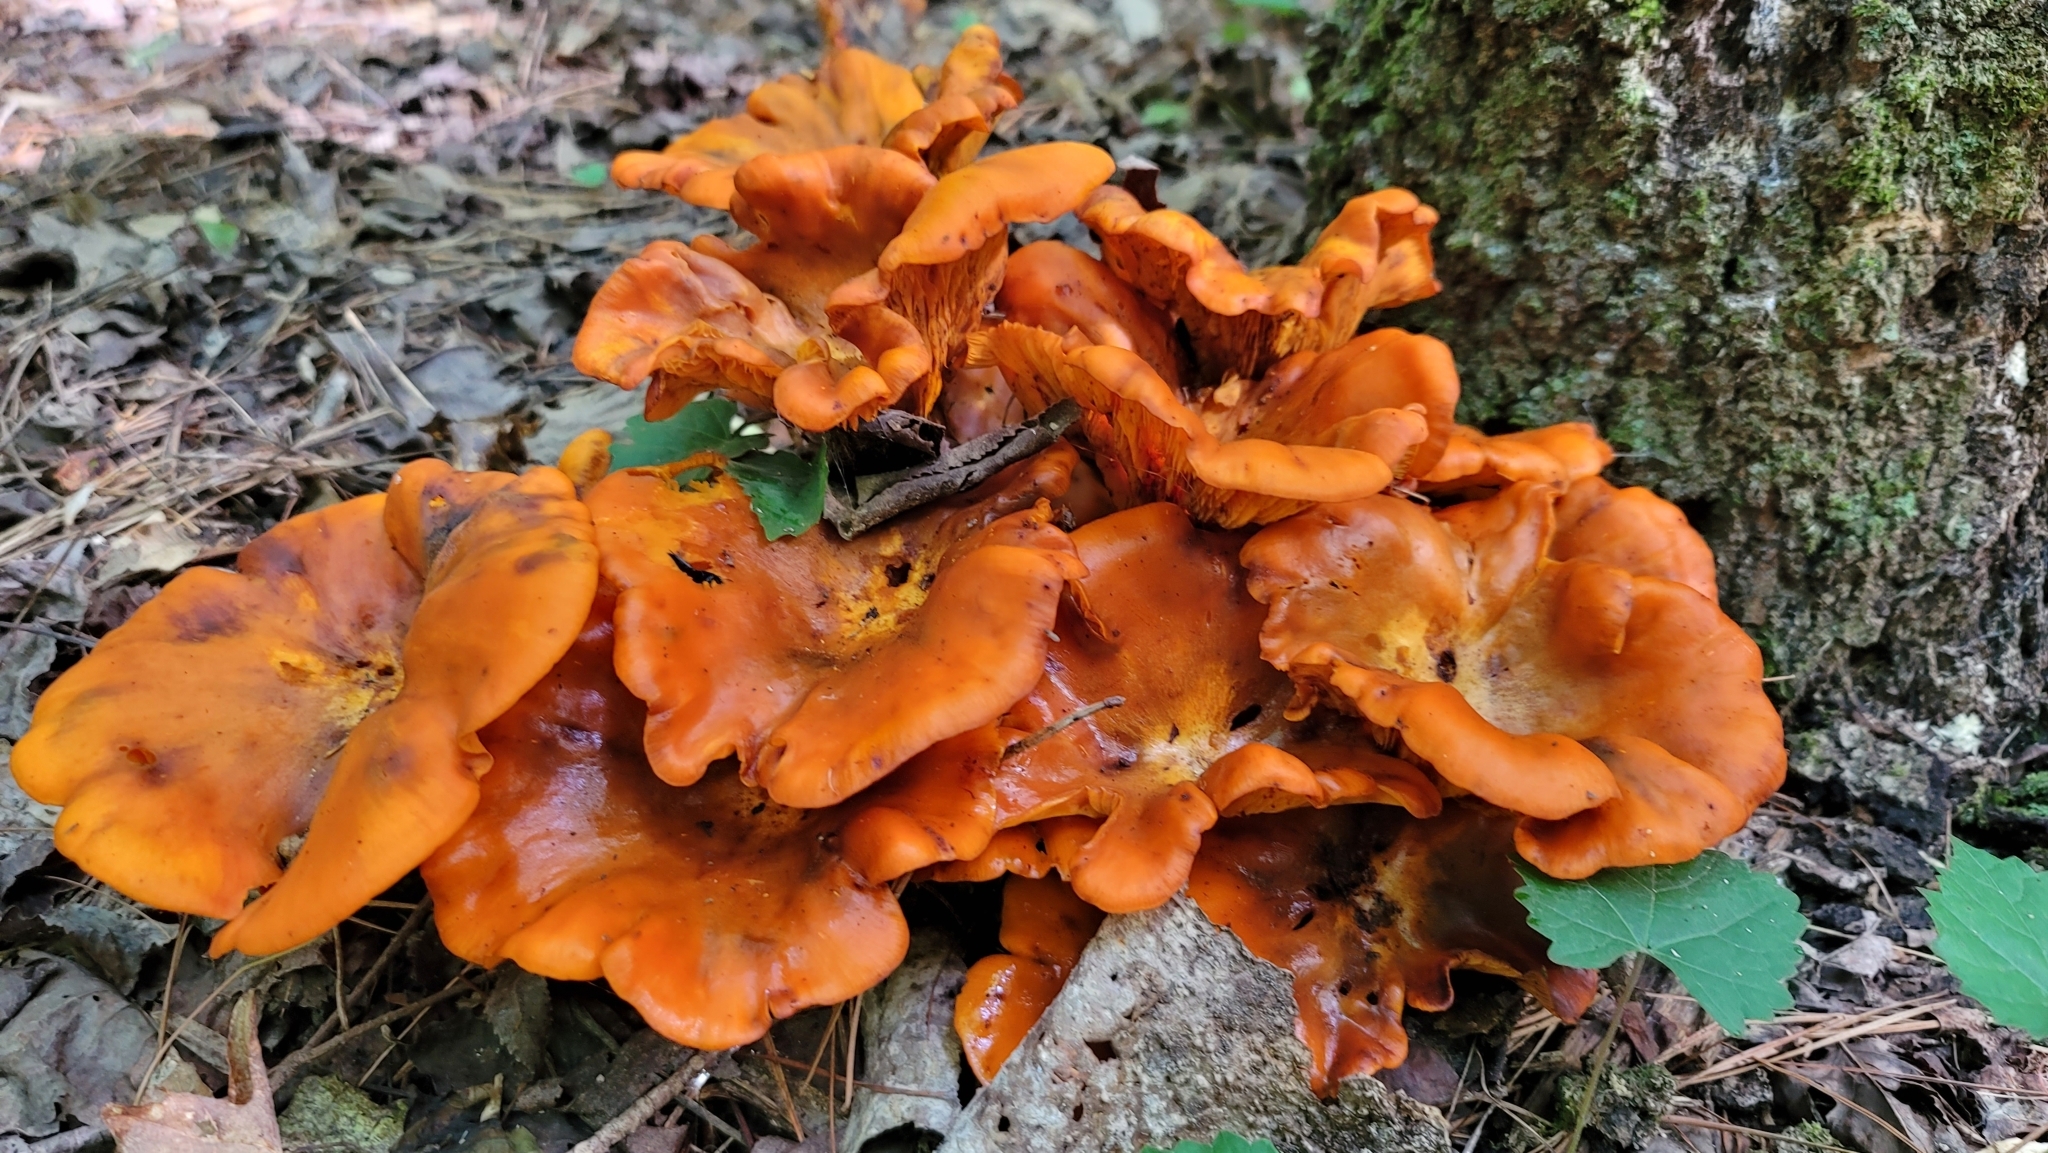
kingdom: Fungi
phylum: Basidiomycota
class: Agaricomycetes
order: Agaricales
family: Omphalotaceae
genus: Omphalotus
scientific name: Omphalotus illudens
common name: Jack o lantern
